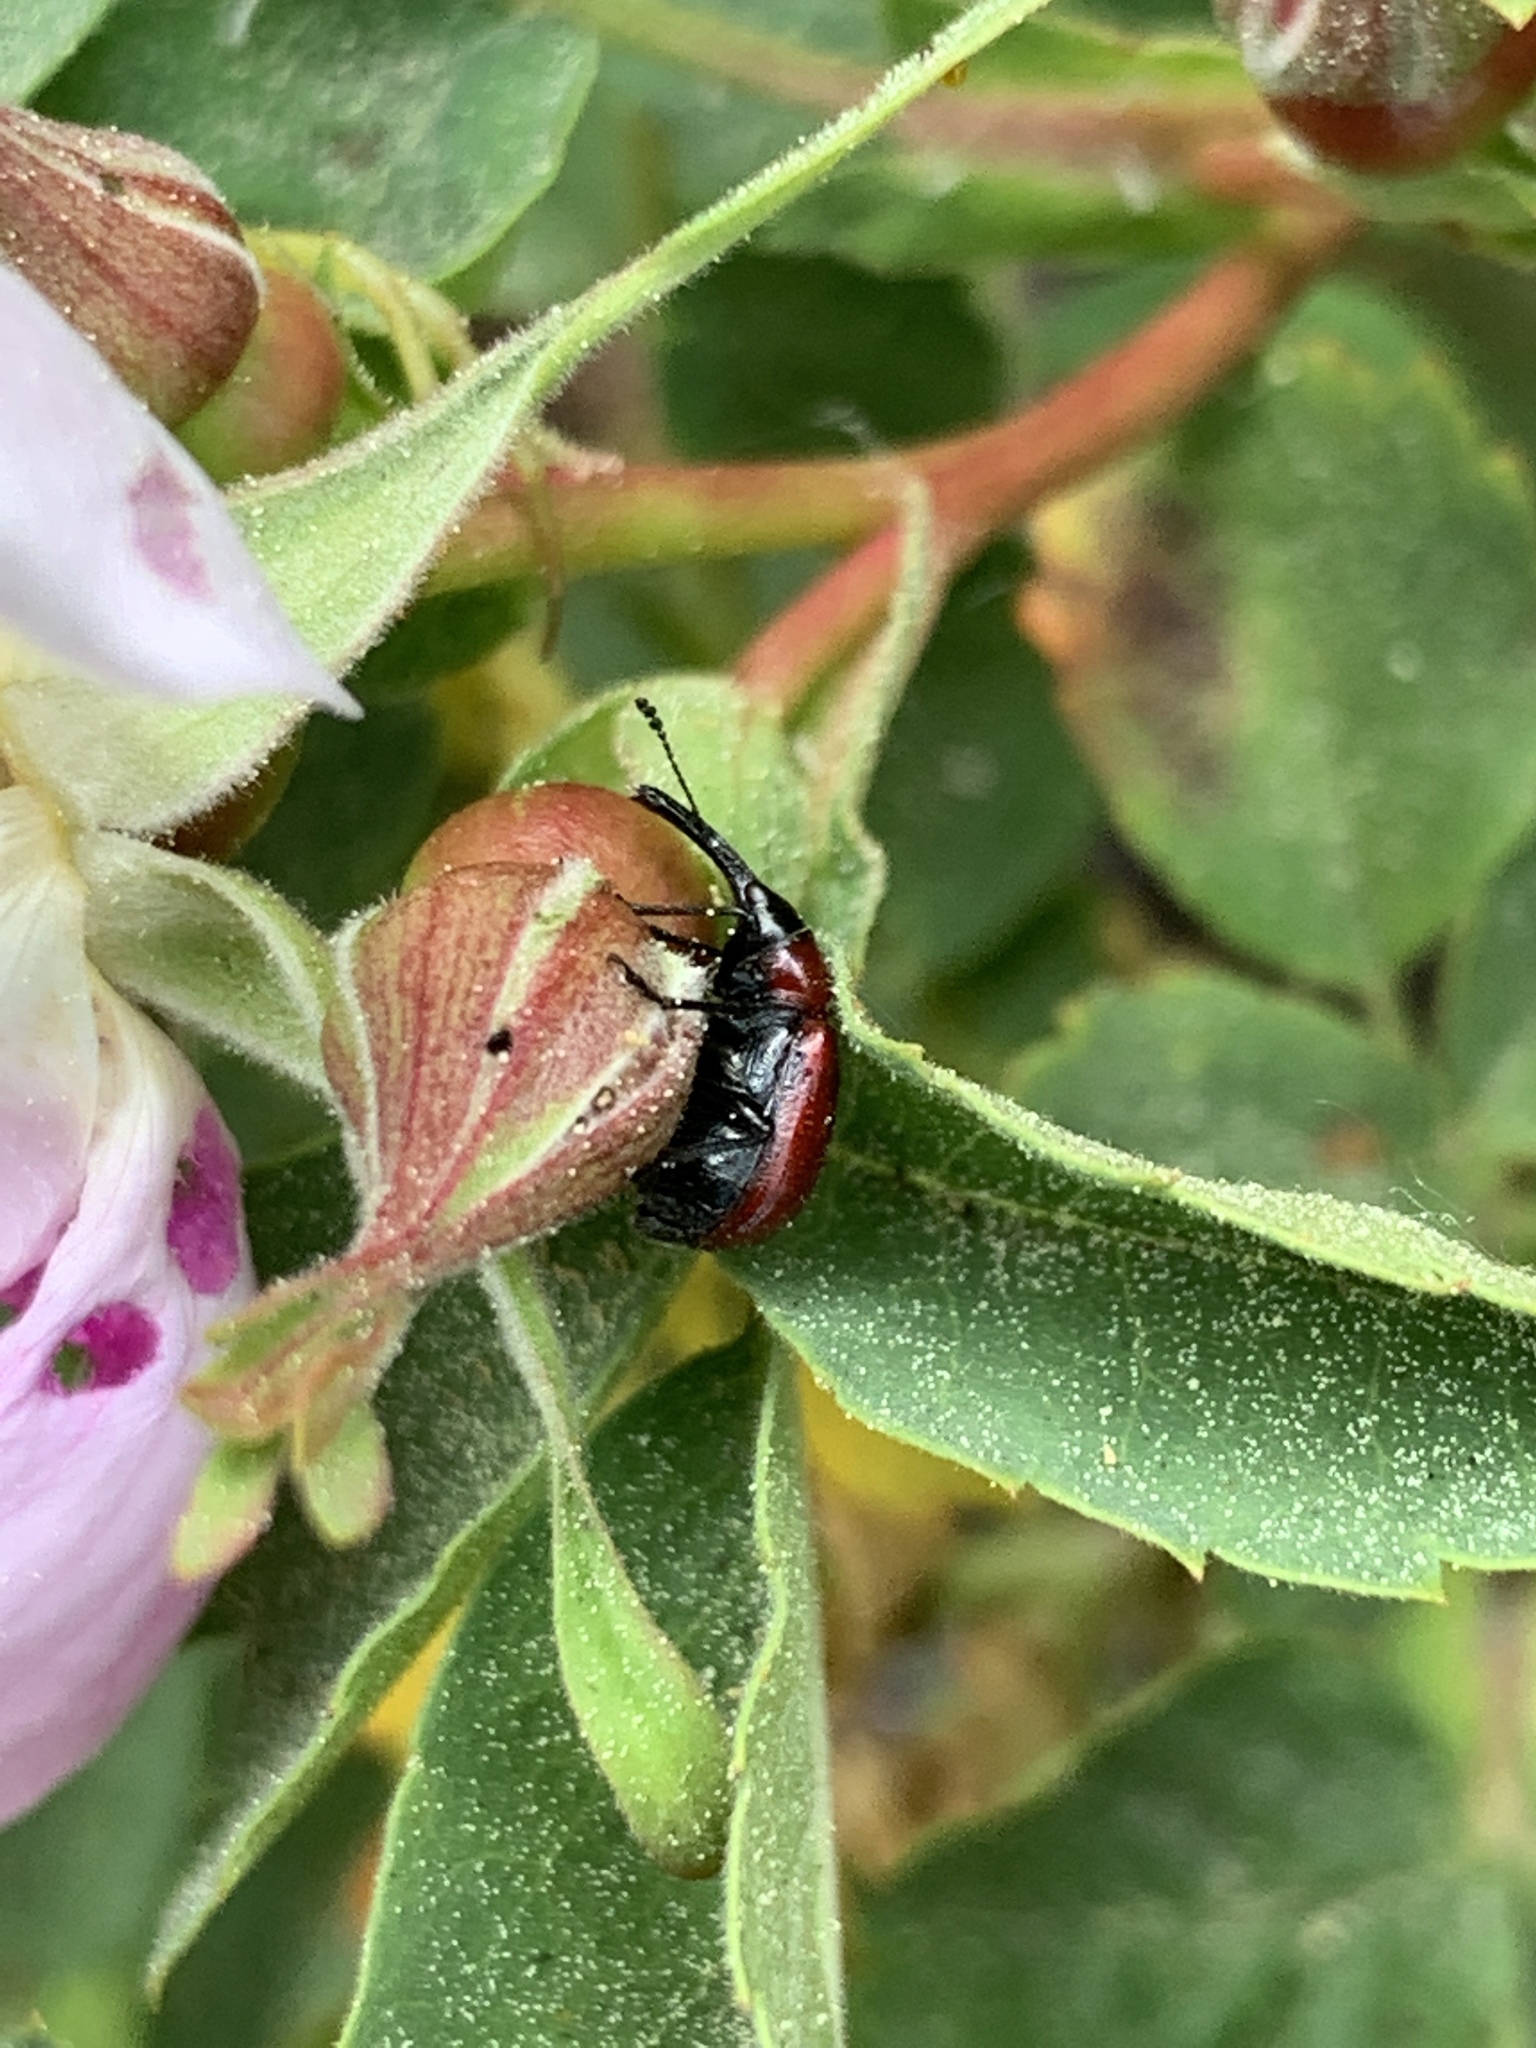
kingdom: Animalia
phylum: Arthropoda
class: Insecta
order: Coleoptera
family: Attelabidae
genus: Merhynchites
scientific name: Merhynchites bicolor
